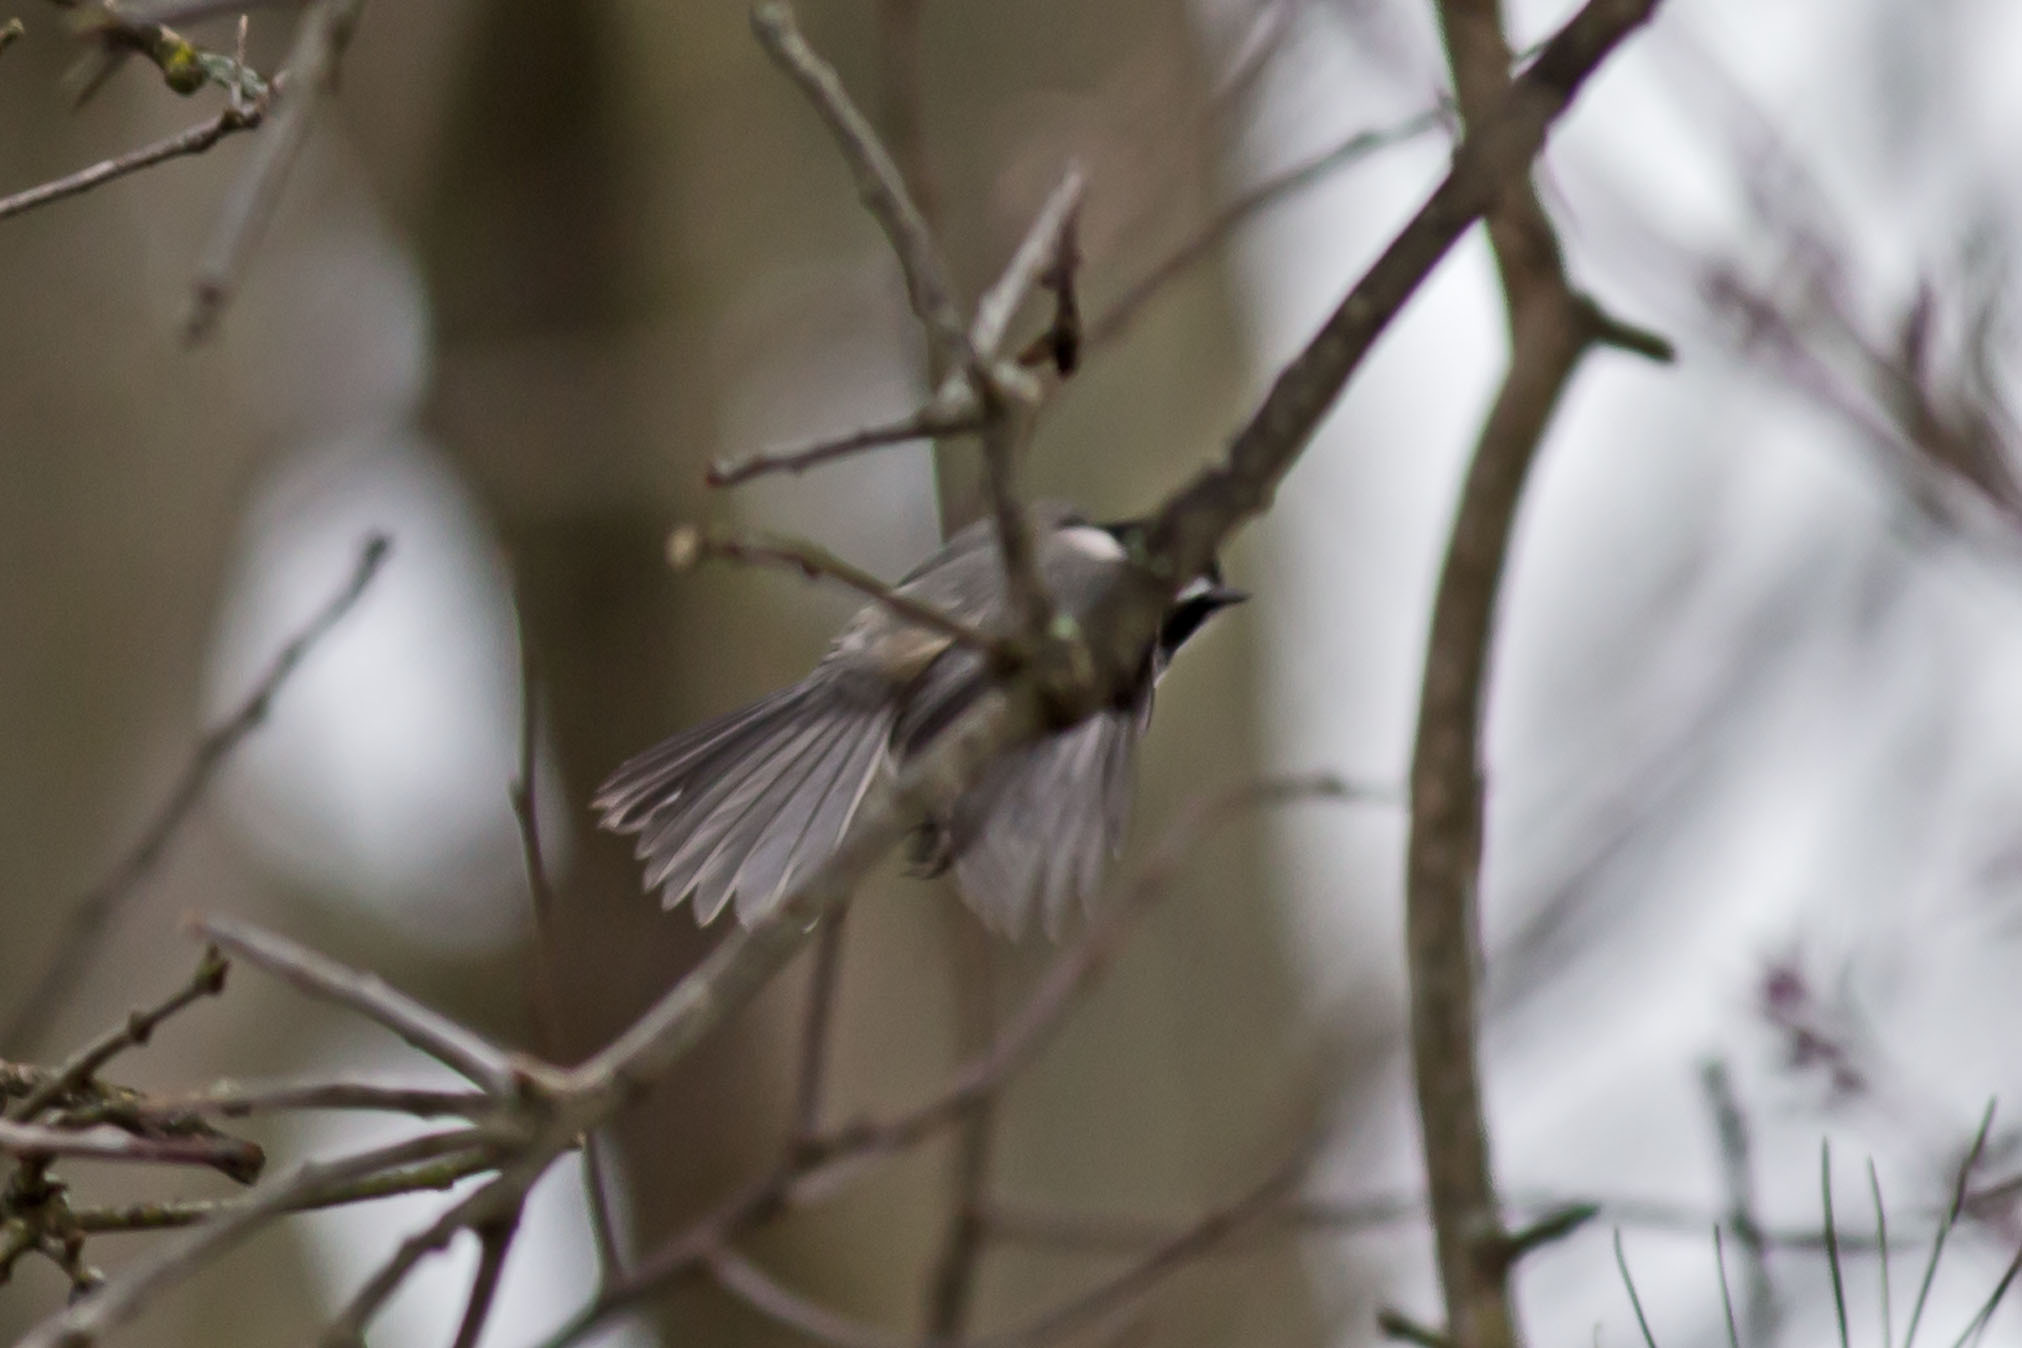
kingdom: Animalia
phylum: Chordata
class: Aves
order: Passeriformes
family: Paridae
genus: Poecile
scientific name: Poecile carolinensis
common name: Carolina chickadee
